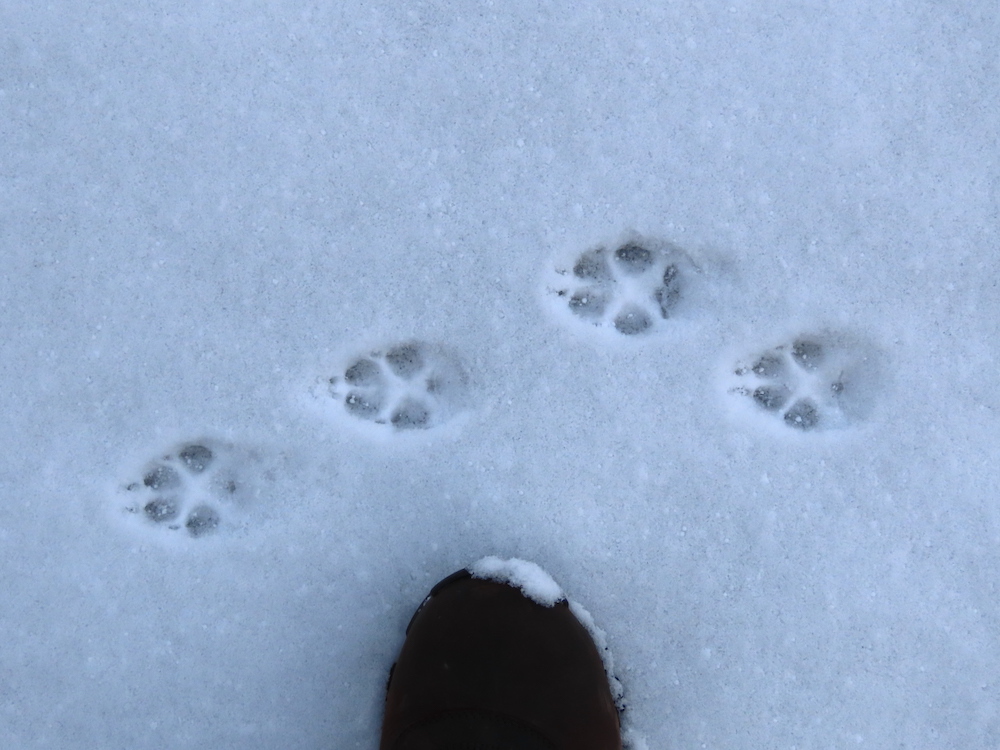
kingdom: Animalia
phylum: Chordata
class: Mammalia
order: Carnivora
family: Canidae
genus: Vulpes
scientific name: Vulpes vulpes
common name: Red fox
